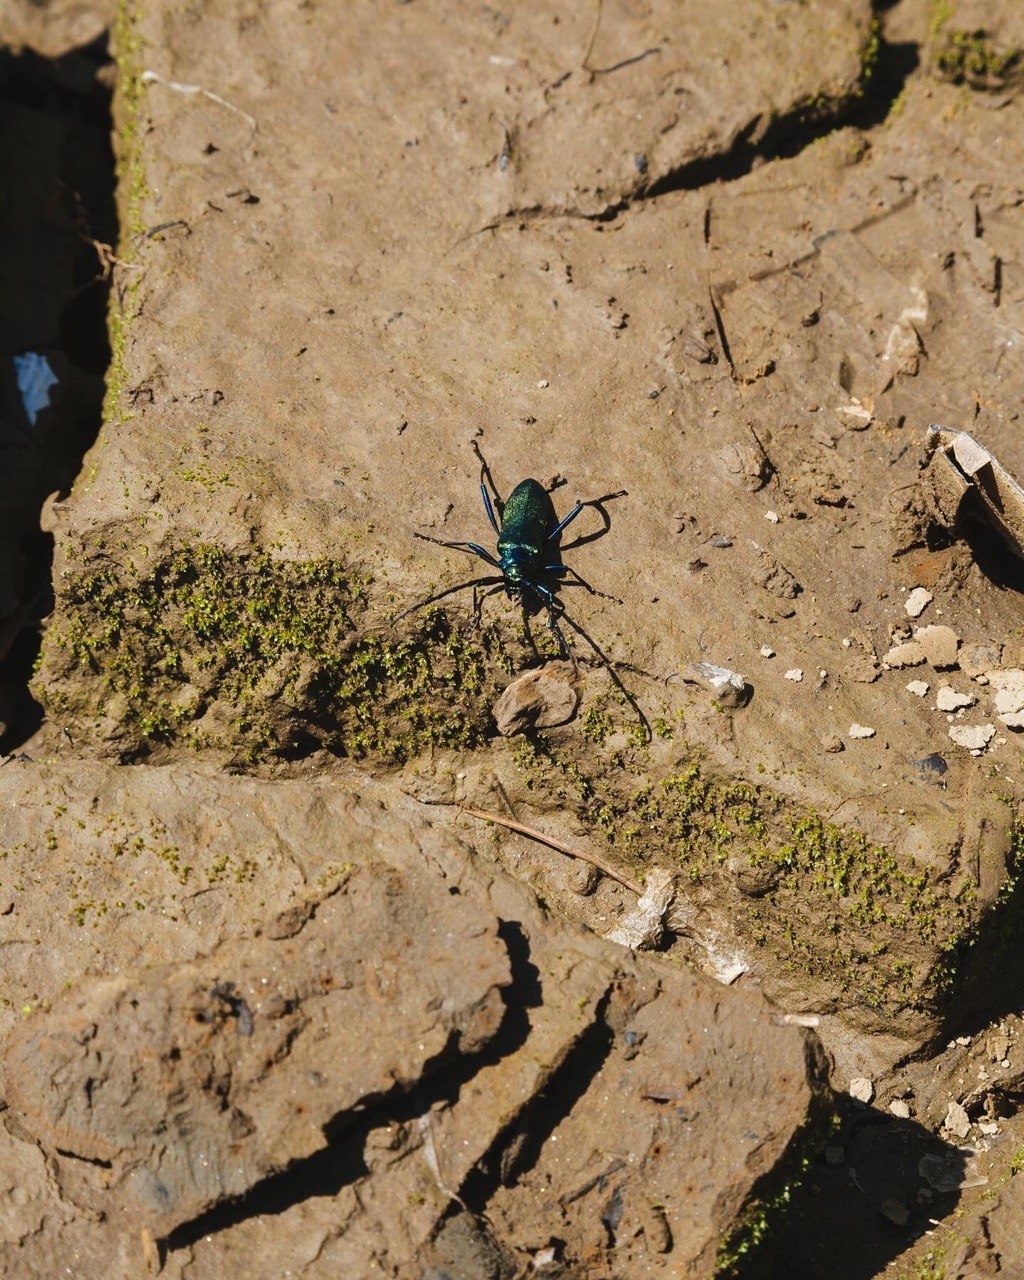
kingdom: Animalia
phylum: Arthropoda
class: Insecta
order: Coleoptera
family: Cerambycidae
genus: Aromia
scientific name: Aromia moschata
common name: Musk beetle
